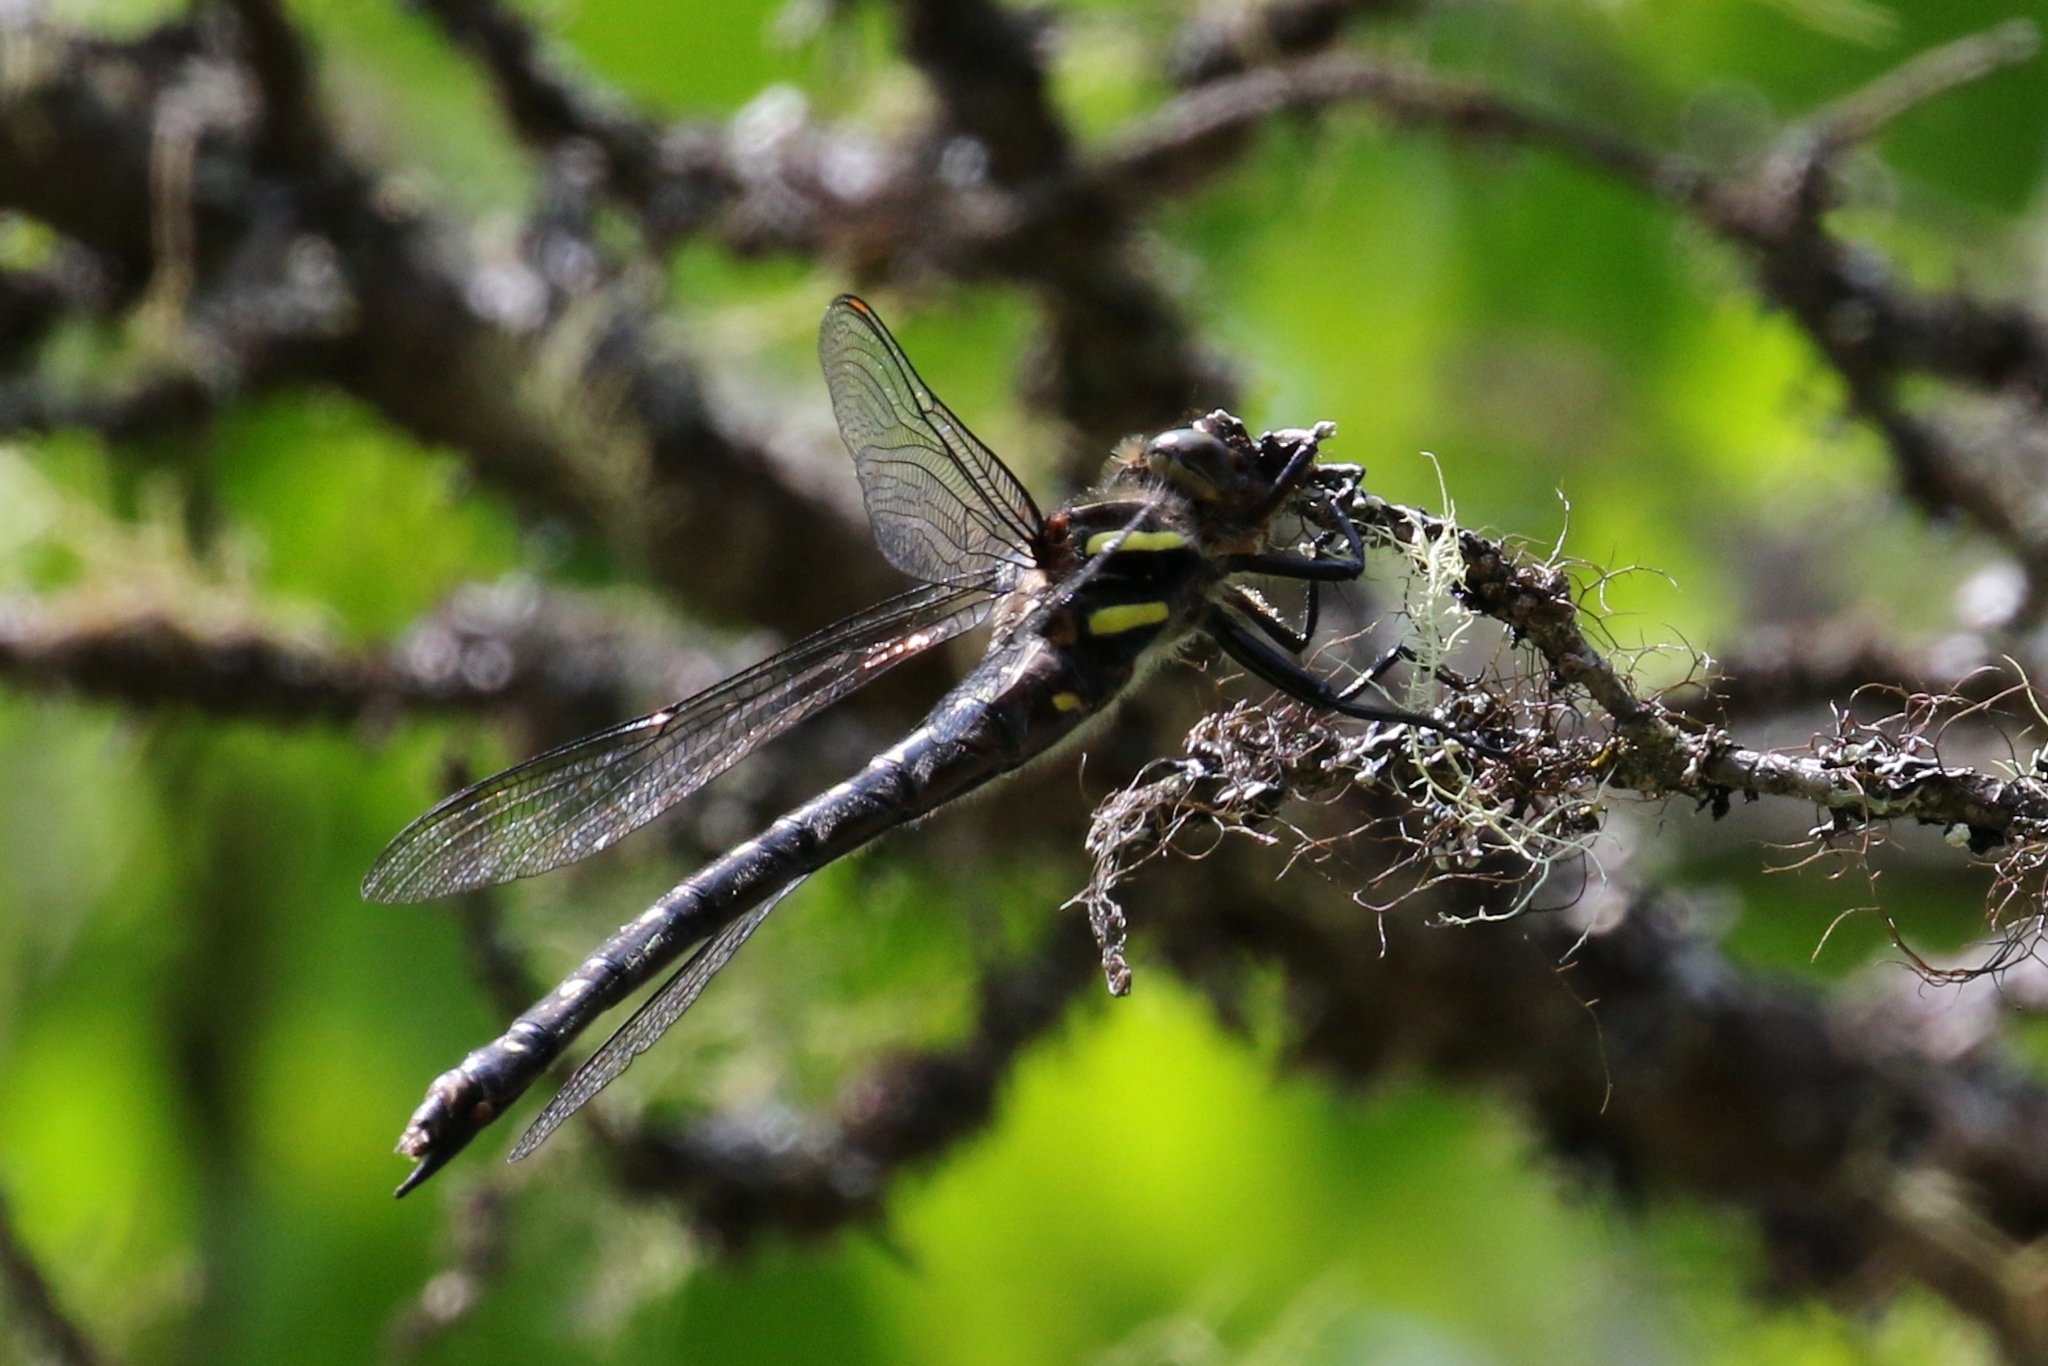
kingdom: Animalia
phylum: Arthropoda
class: Insecta
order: Odonata
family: Cordulegastridae
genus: Cordulegaster
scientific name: Cordulegaster maculata
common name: Twin-spotted spiketail
